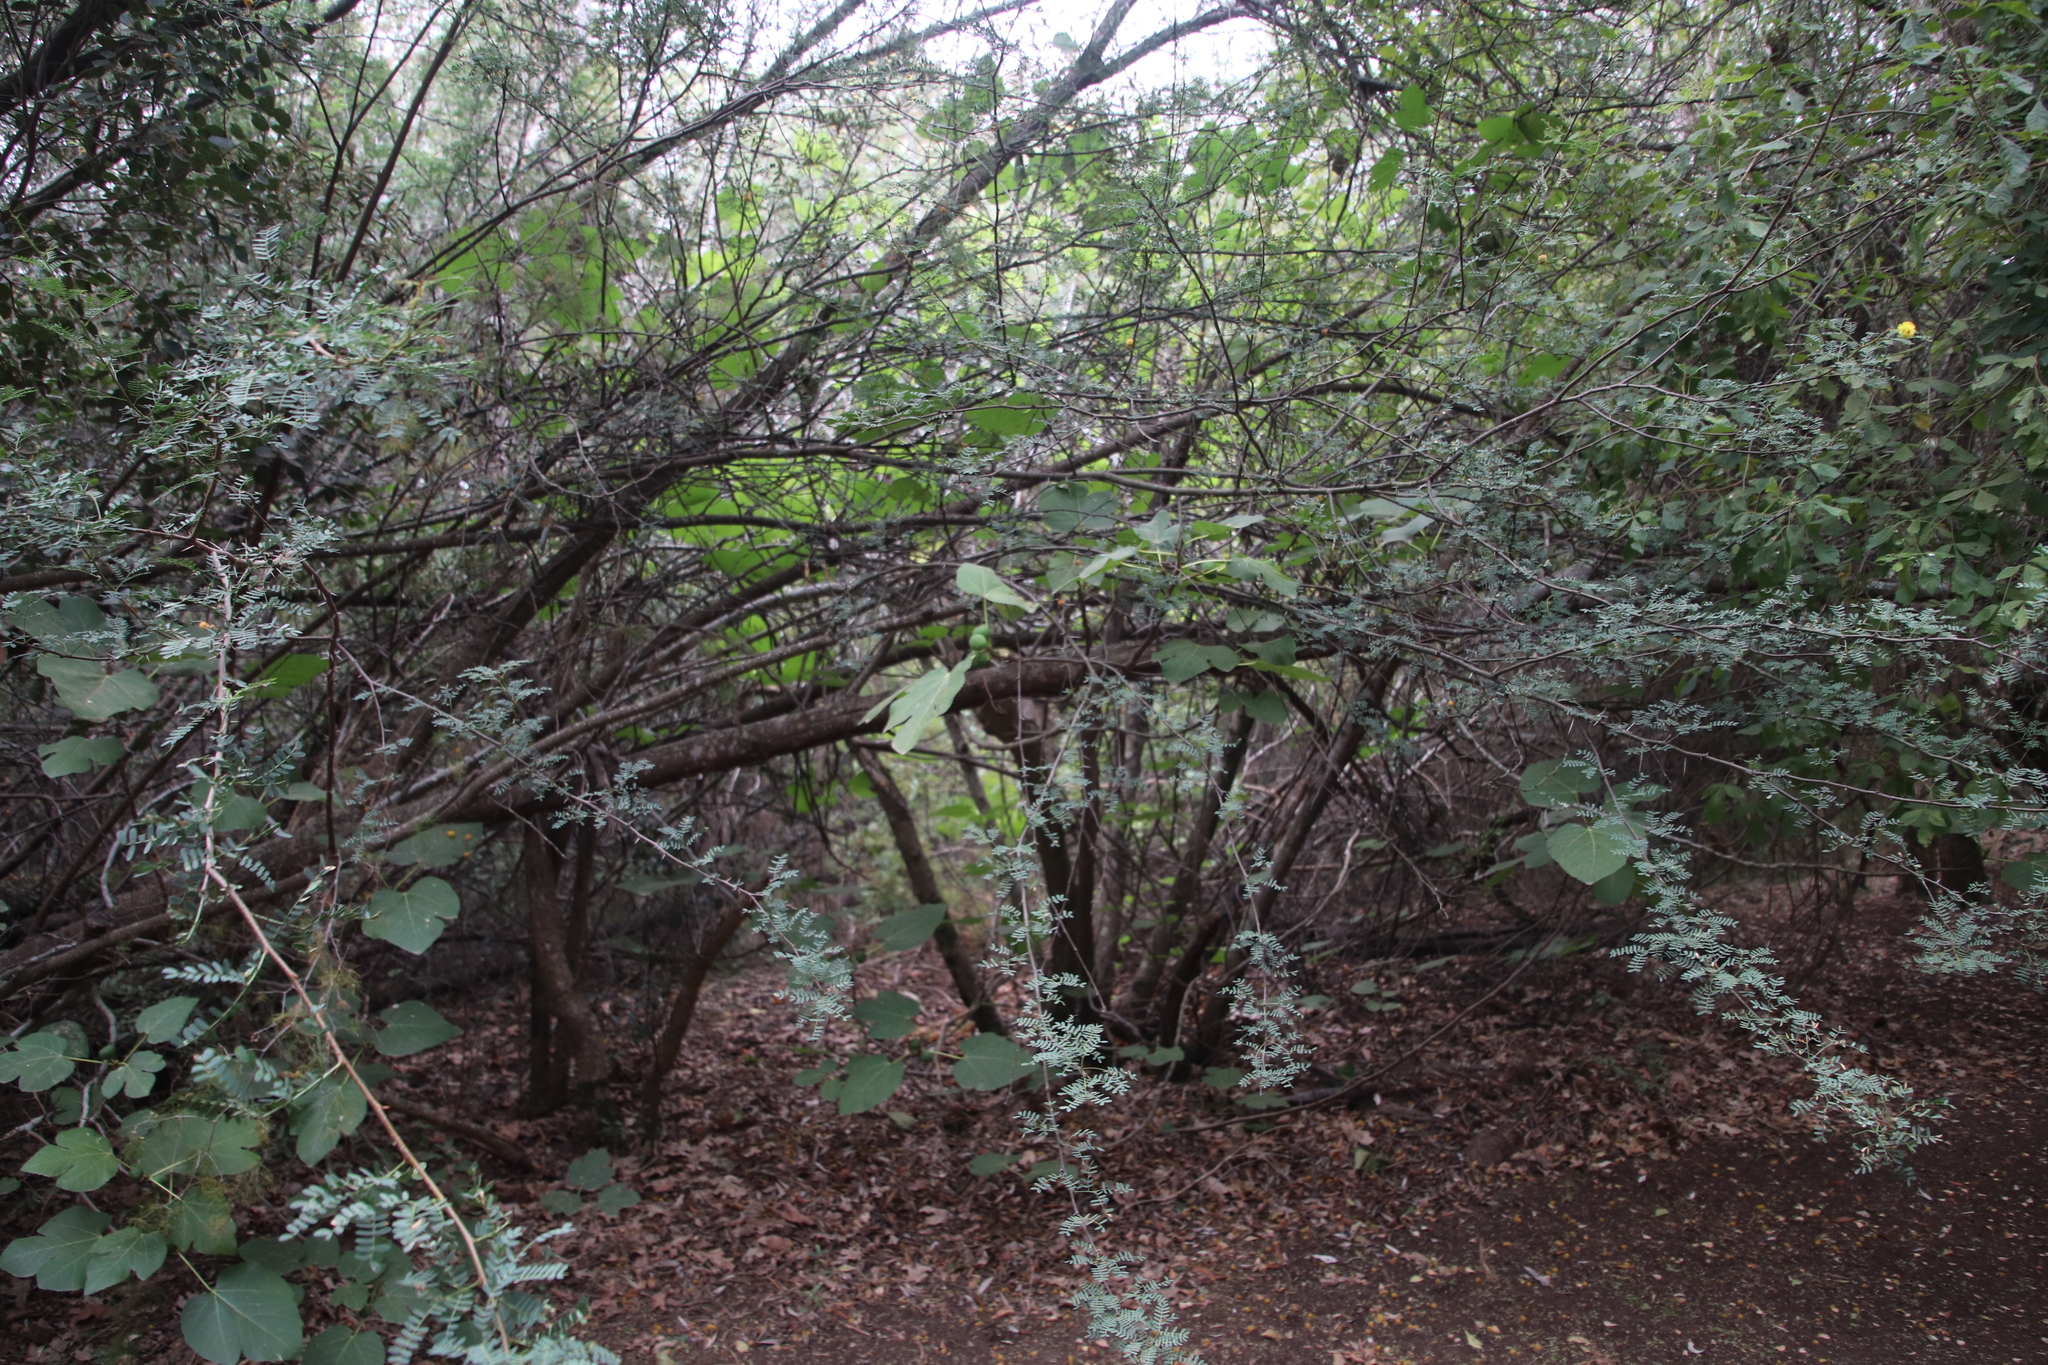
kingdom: Plantae
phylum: Tracheophyta
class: Magnoliopsida
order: Rosales
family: Moraceae
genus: Ficus
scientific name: Ficus carica
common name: Fig
